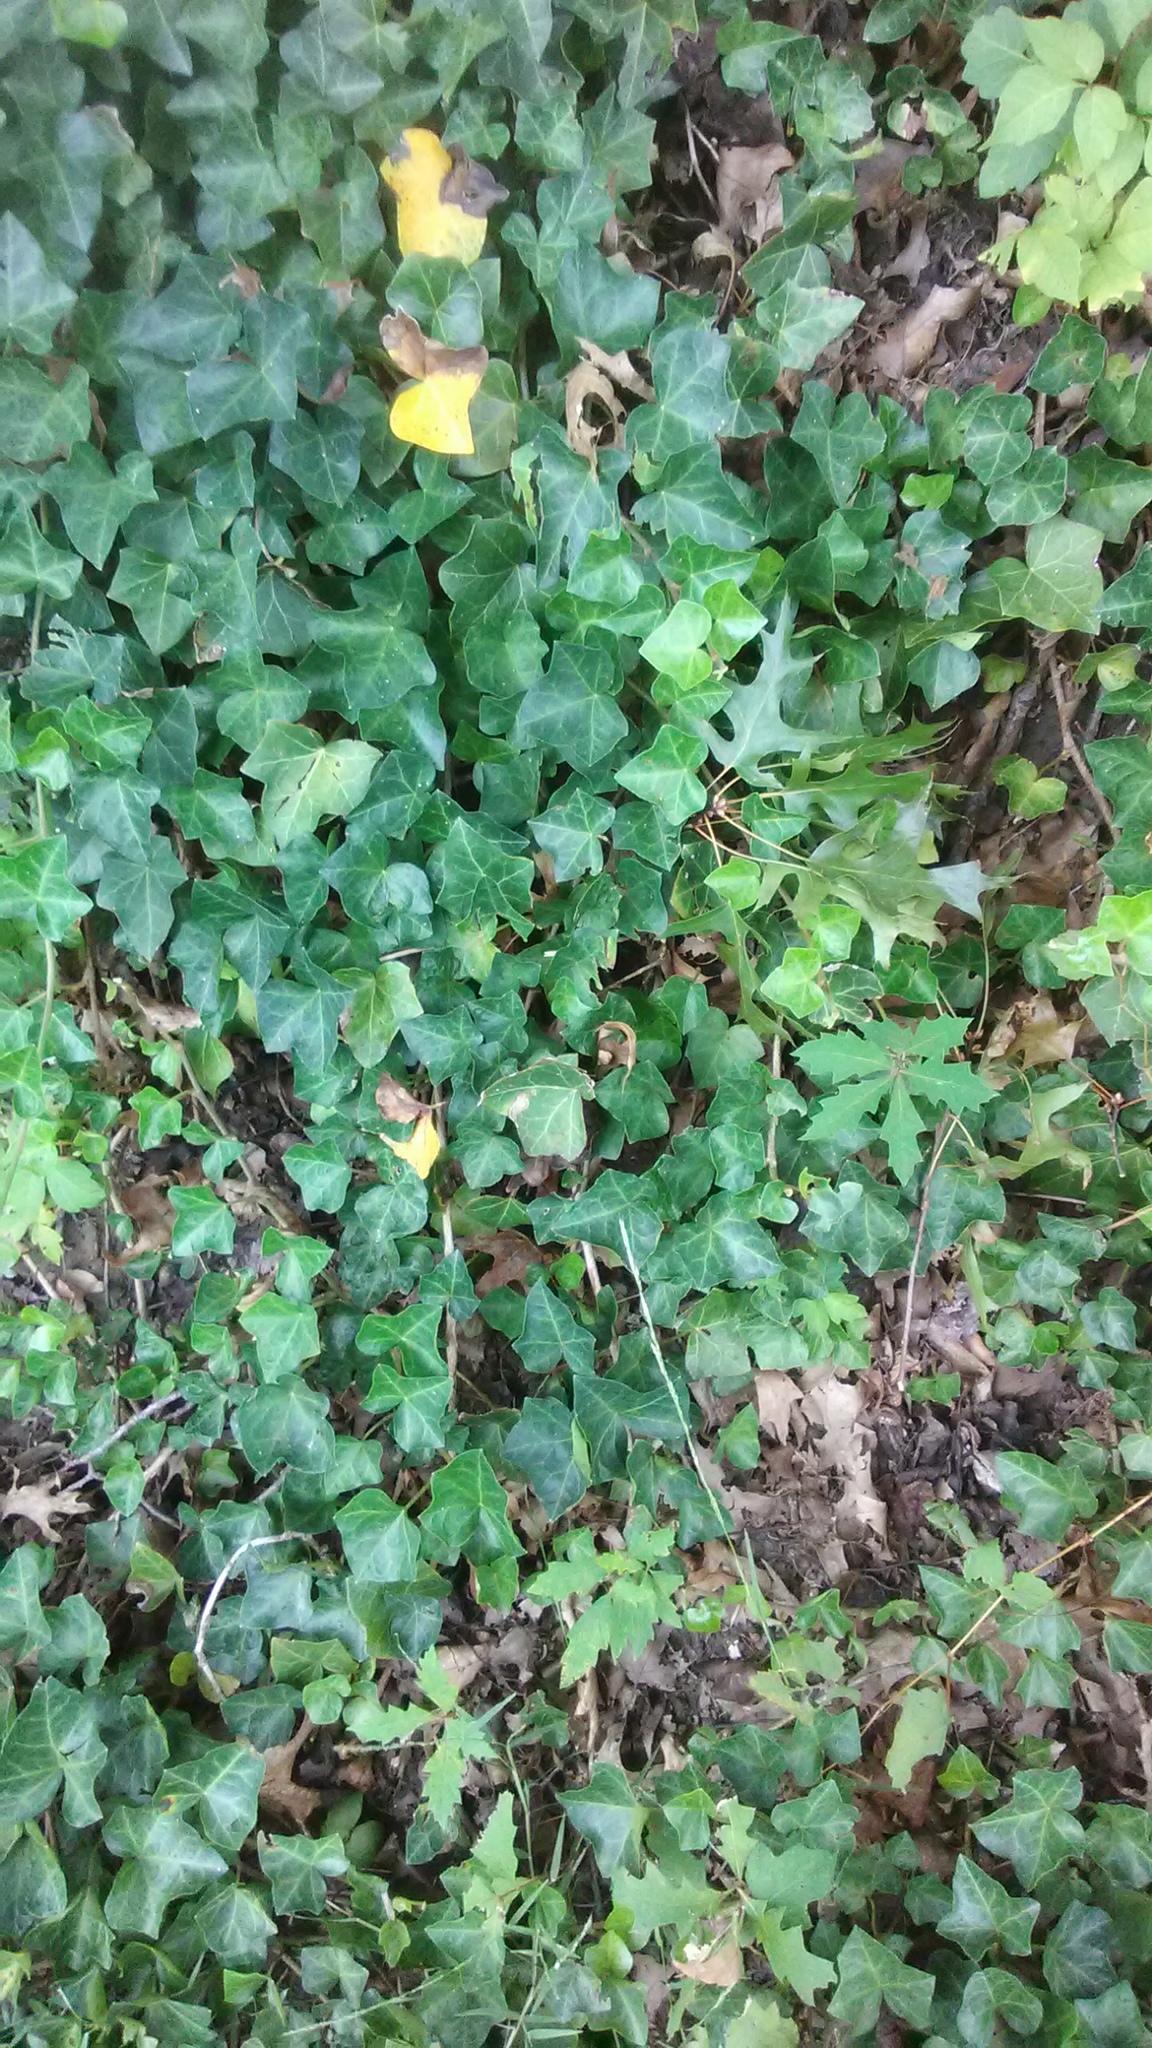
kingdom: Plantae
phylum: Tracheophyta
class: Magnoliopsida
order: Apiales
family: Araliaceae
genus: Hedera
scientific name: Hedera helix
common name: Ivy
